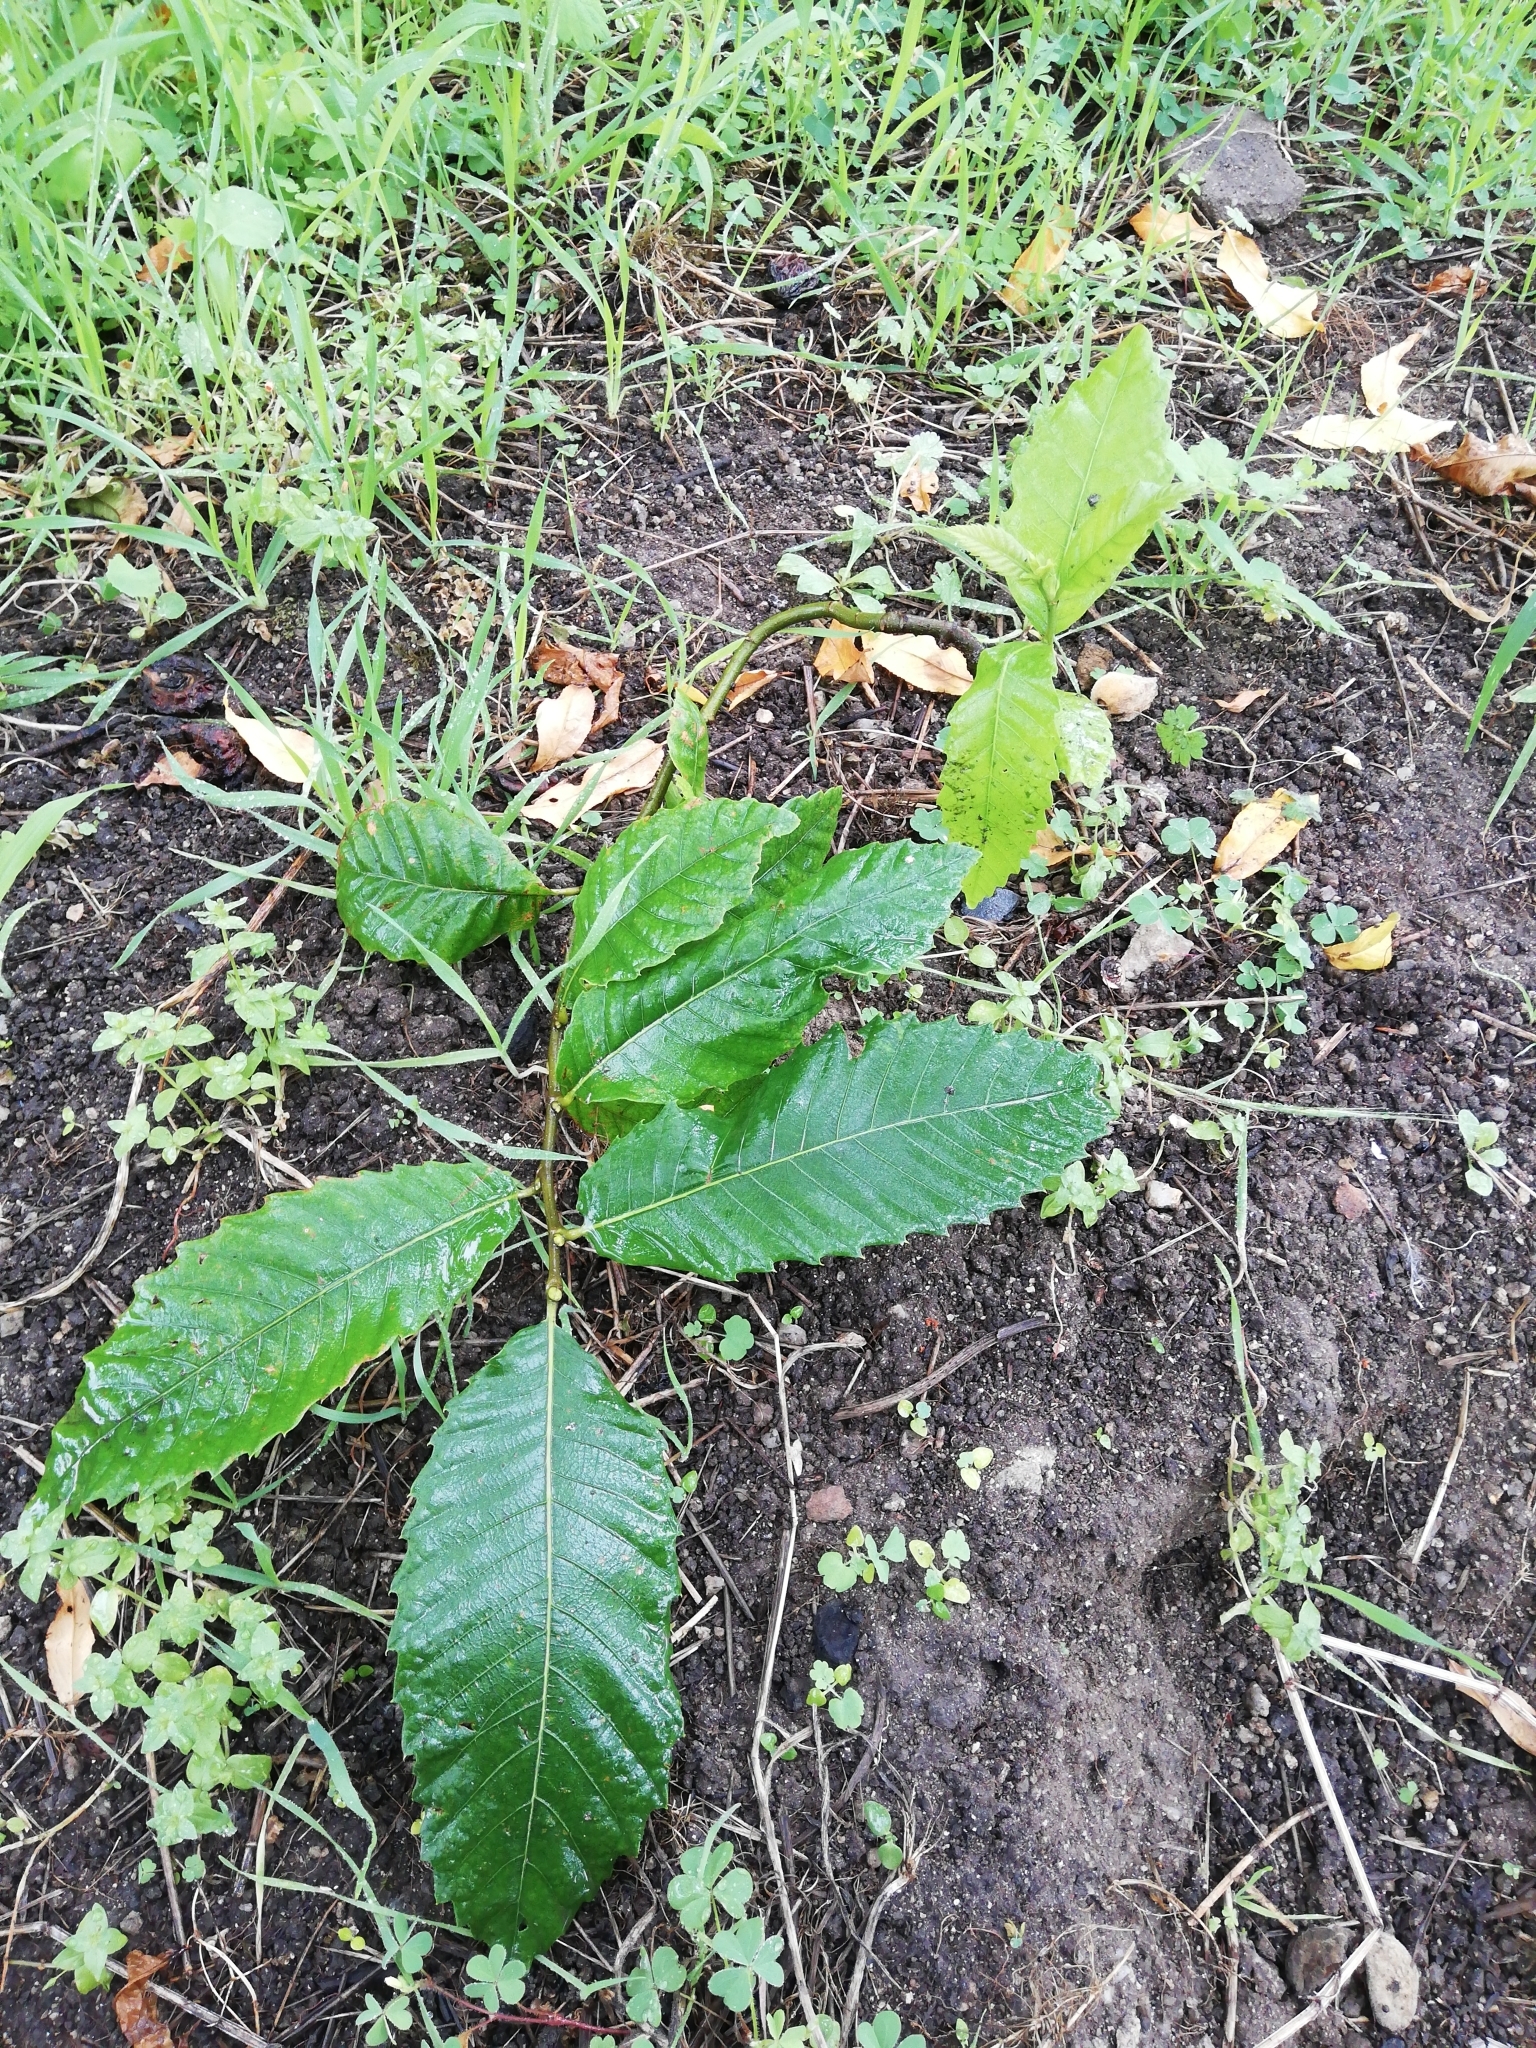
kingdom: Plantae
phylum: Tracheophyta
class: Magnoliopsida
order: Fagales
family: Fagaceae
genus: Castanea
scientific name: Castanea sativa
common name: Sweet chestnut
